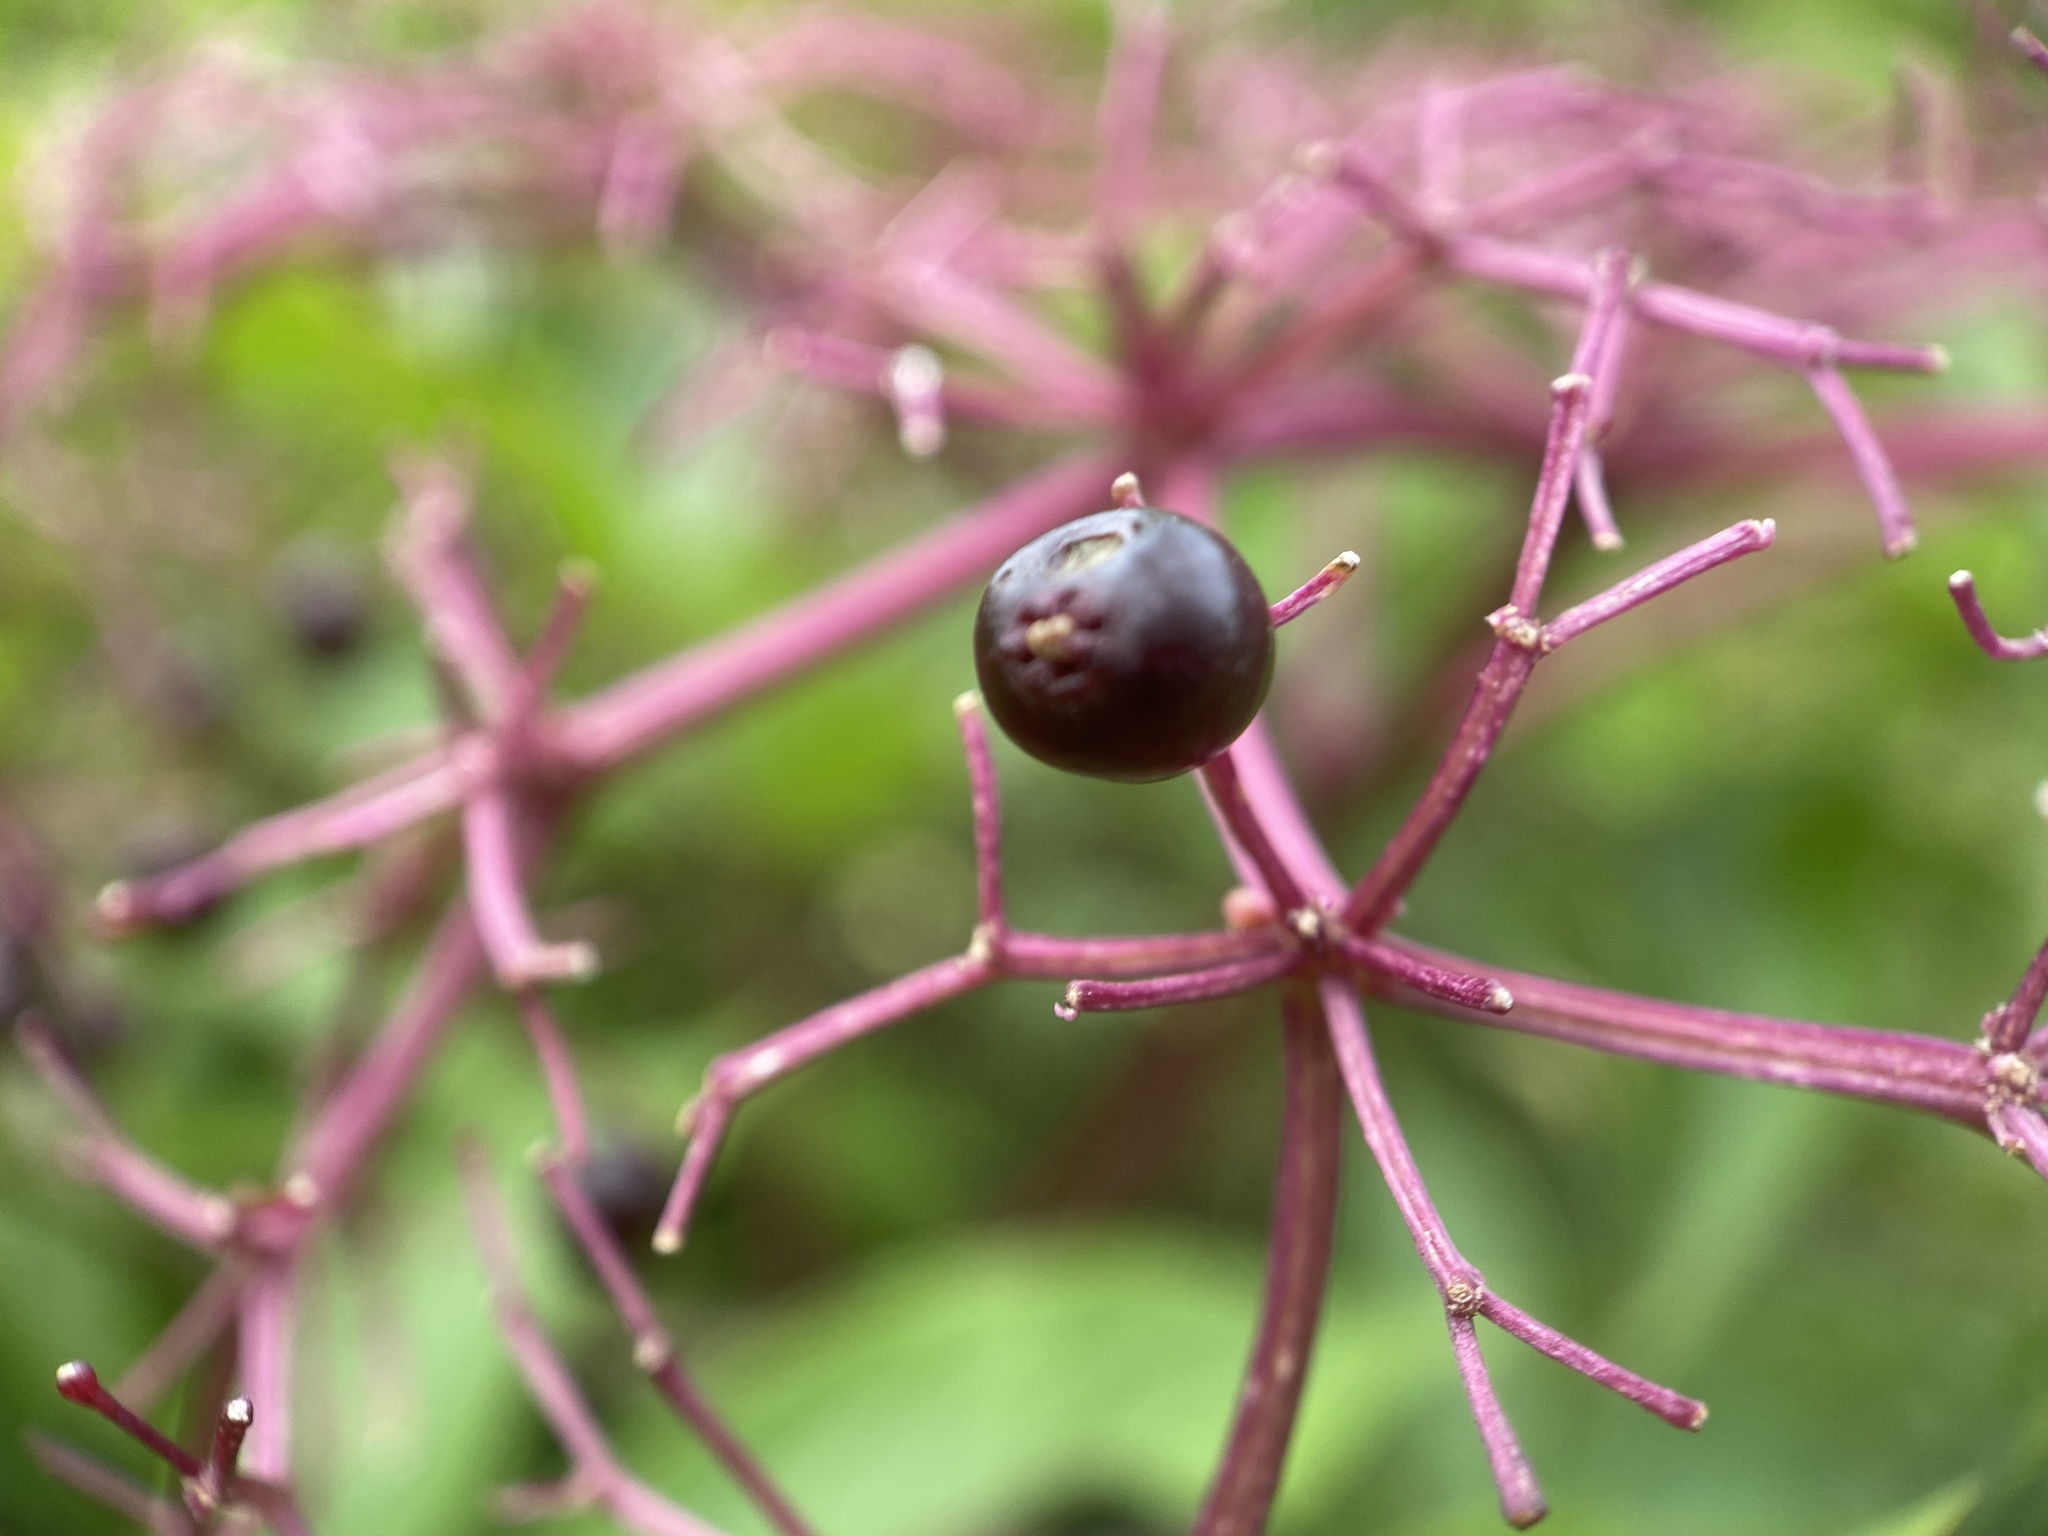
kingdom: Plantae
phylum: Tracheophyta
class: Magnoliopsida
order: Dipsacales
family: Viburnaceae
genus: Sambucus
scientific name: Sambucus canadensis
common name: American elder
